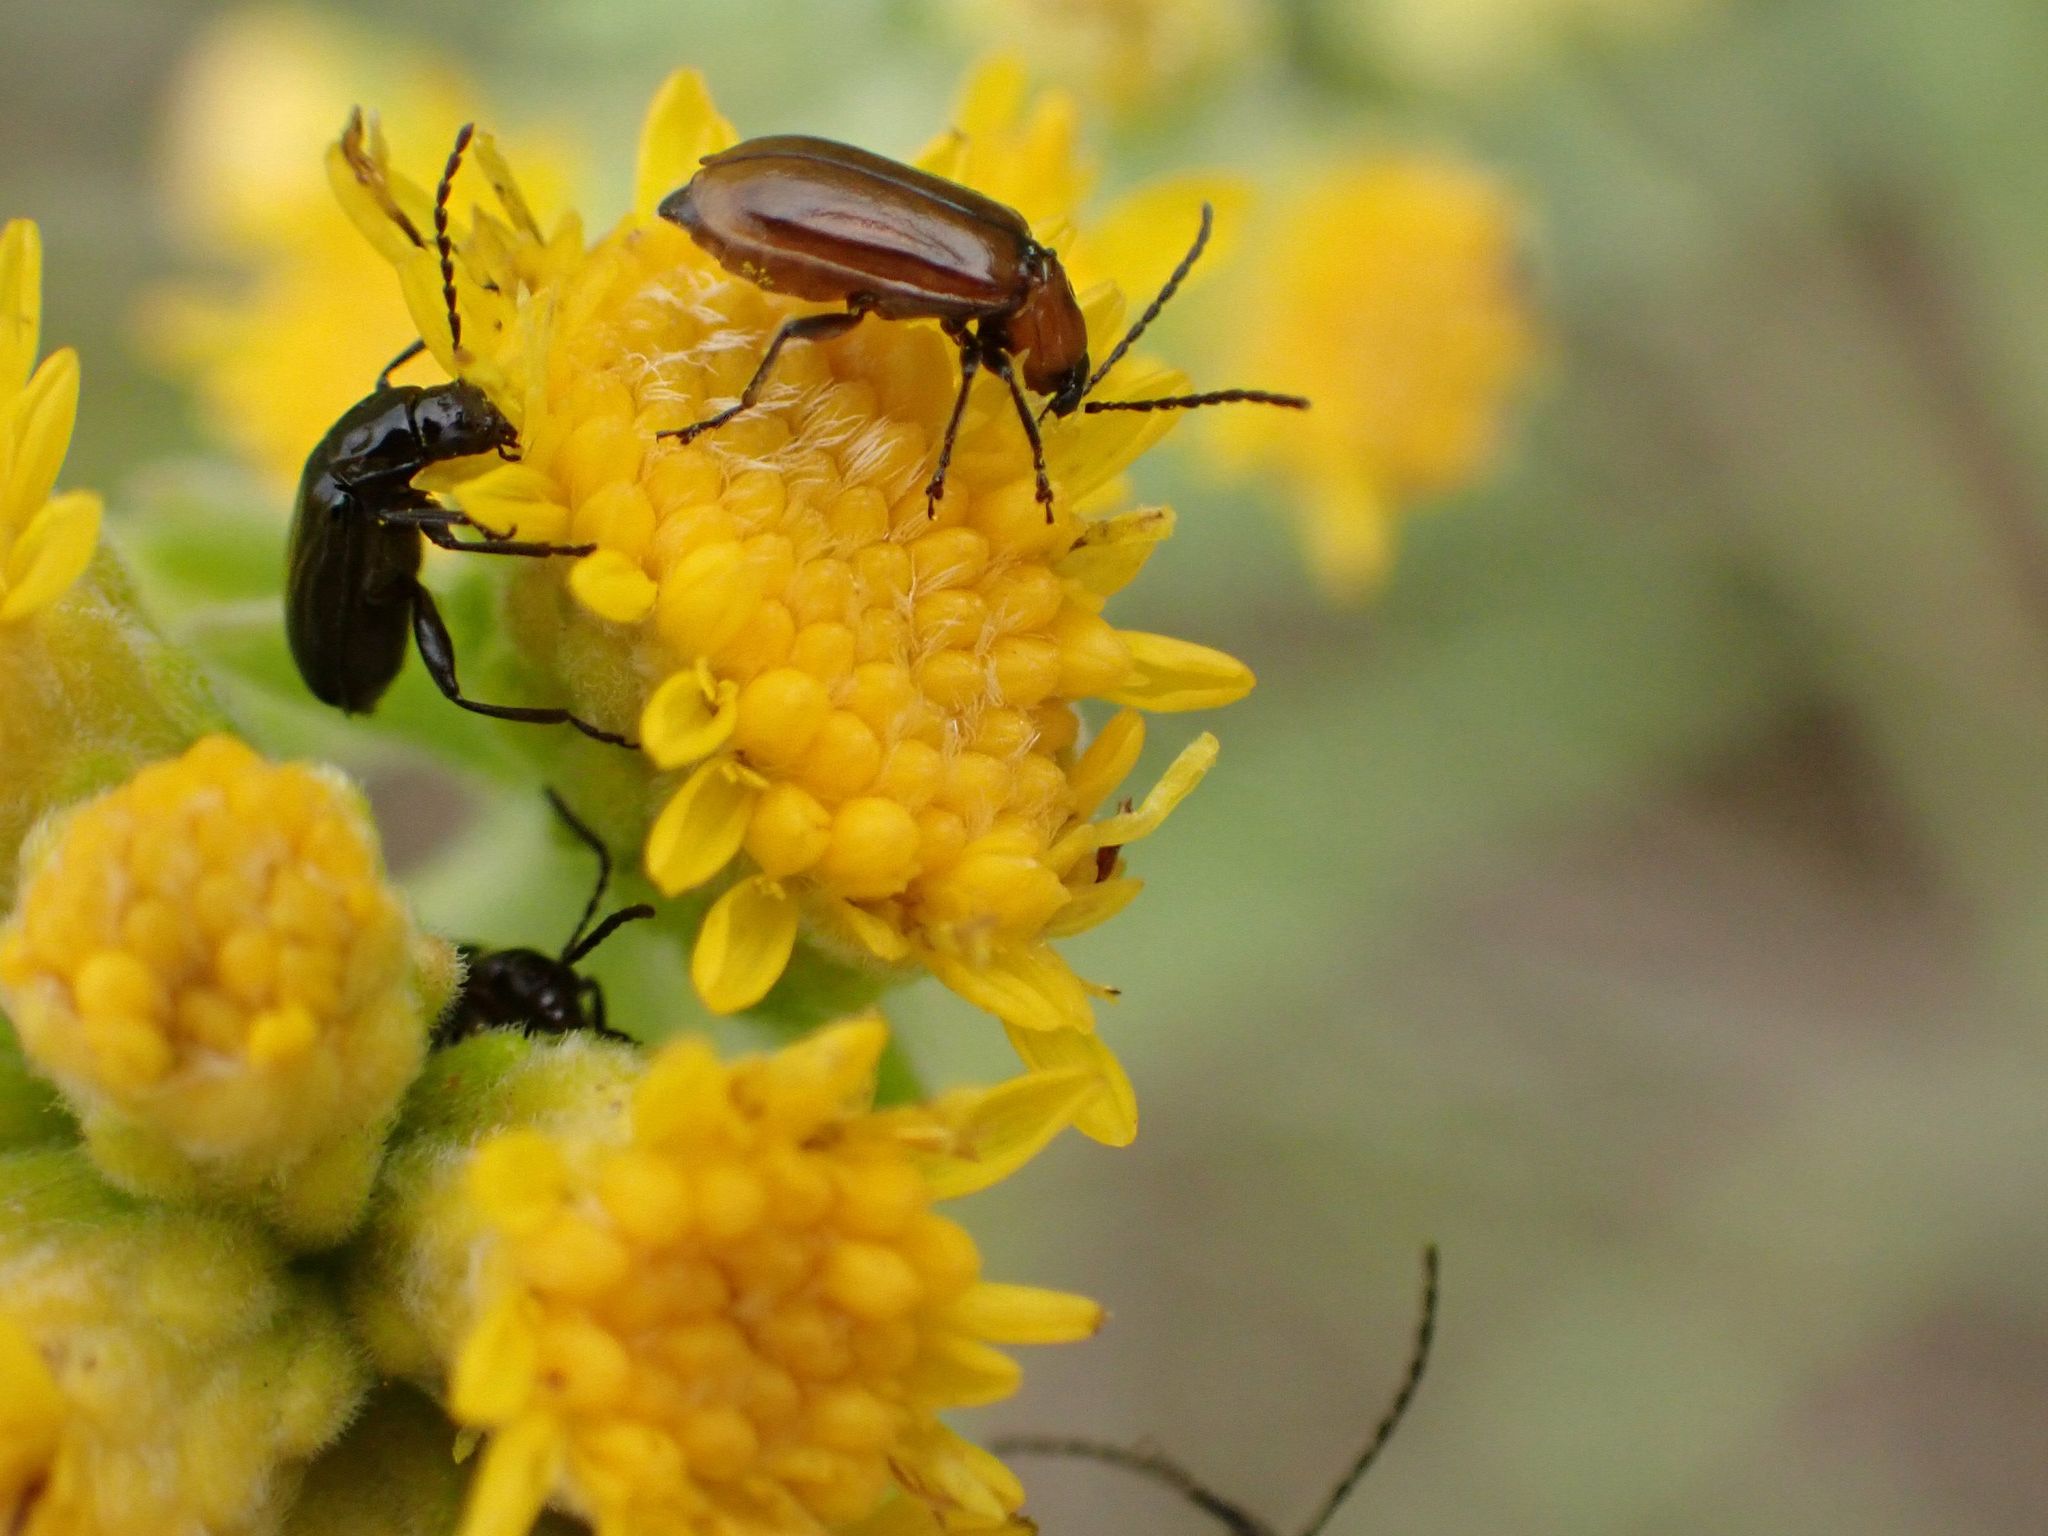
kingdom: Animalia
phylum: Arthropoda
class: Insecta
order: Coleoptera
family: Chrysomelidae
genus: Diabrotica
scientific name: Diabrotica cristata
